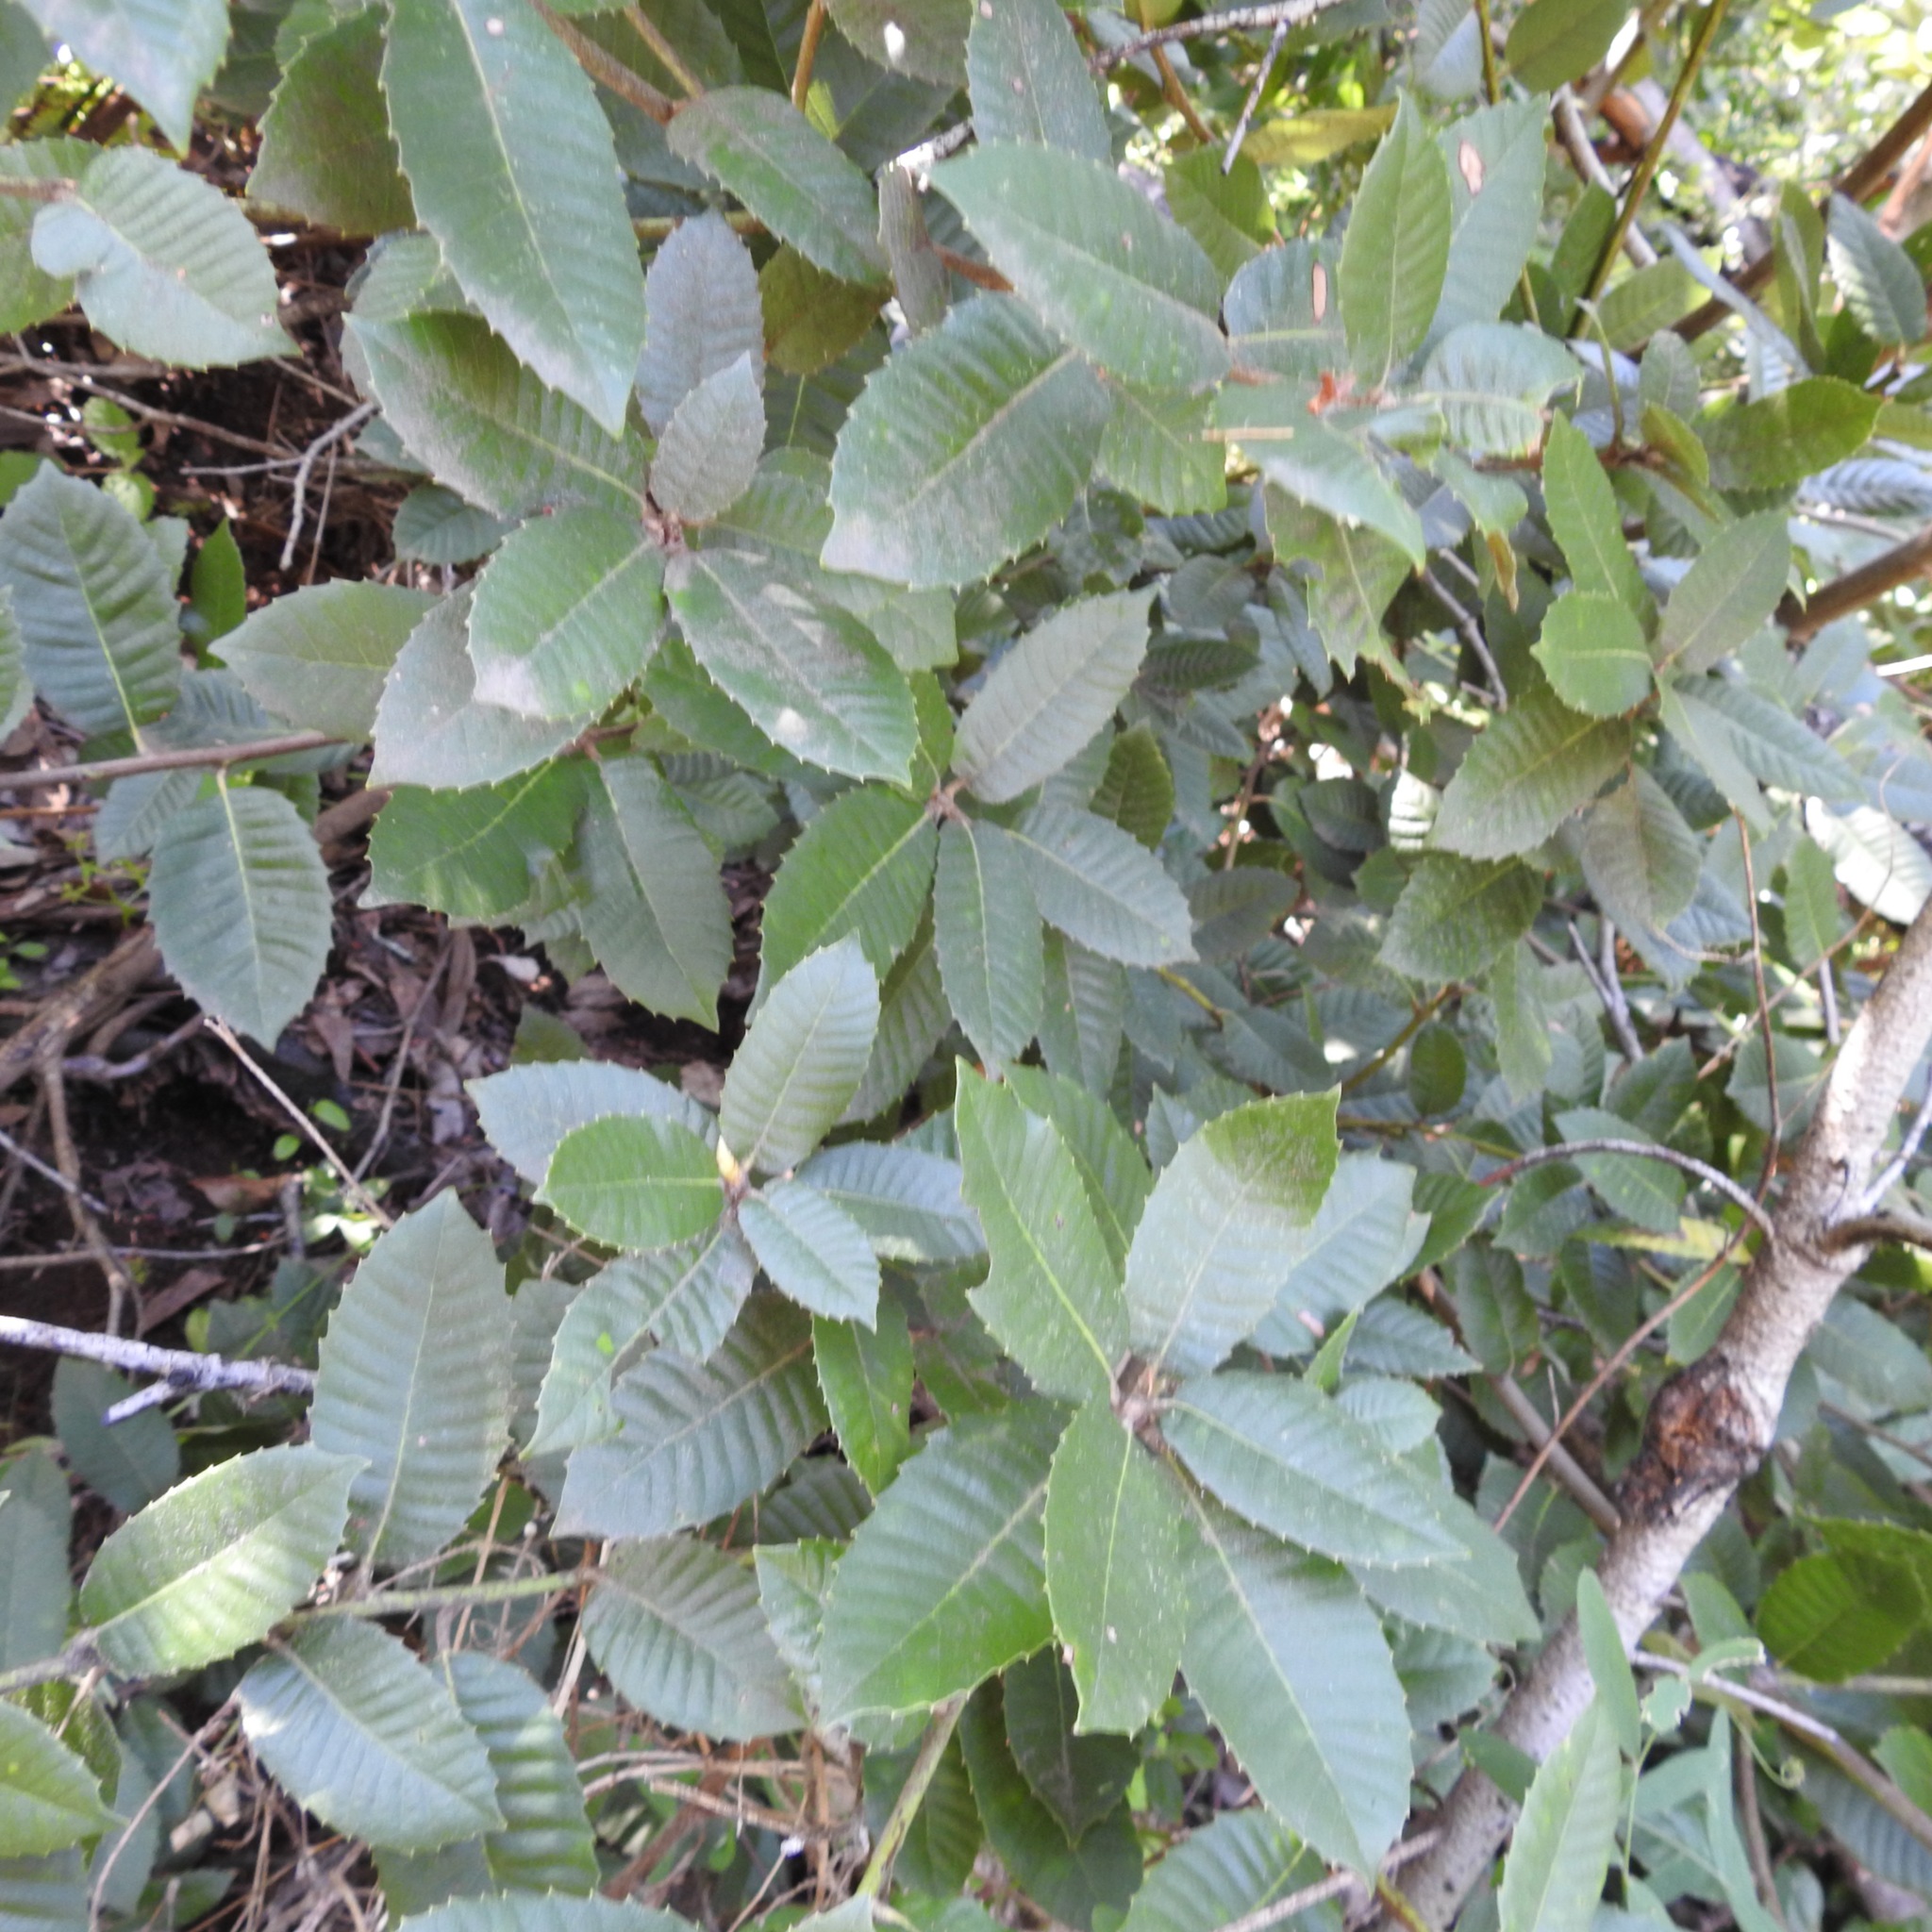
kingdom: Plantae
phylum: Tracheophyta
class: Magnoliopsida
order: Fagales
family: Fagaceae
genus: Notholithocarpus
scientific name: Notholithocarpus densiflorus
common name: Tan bark oak
